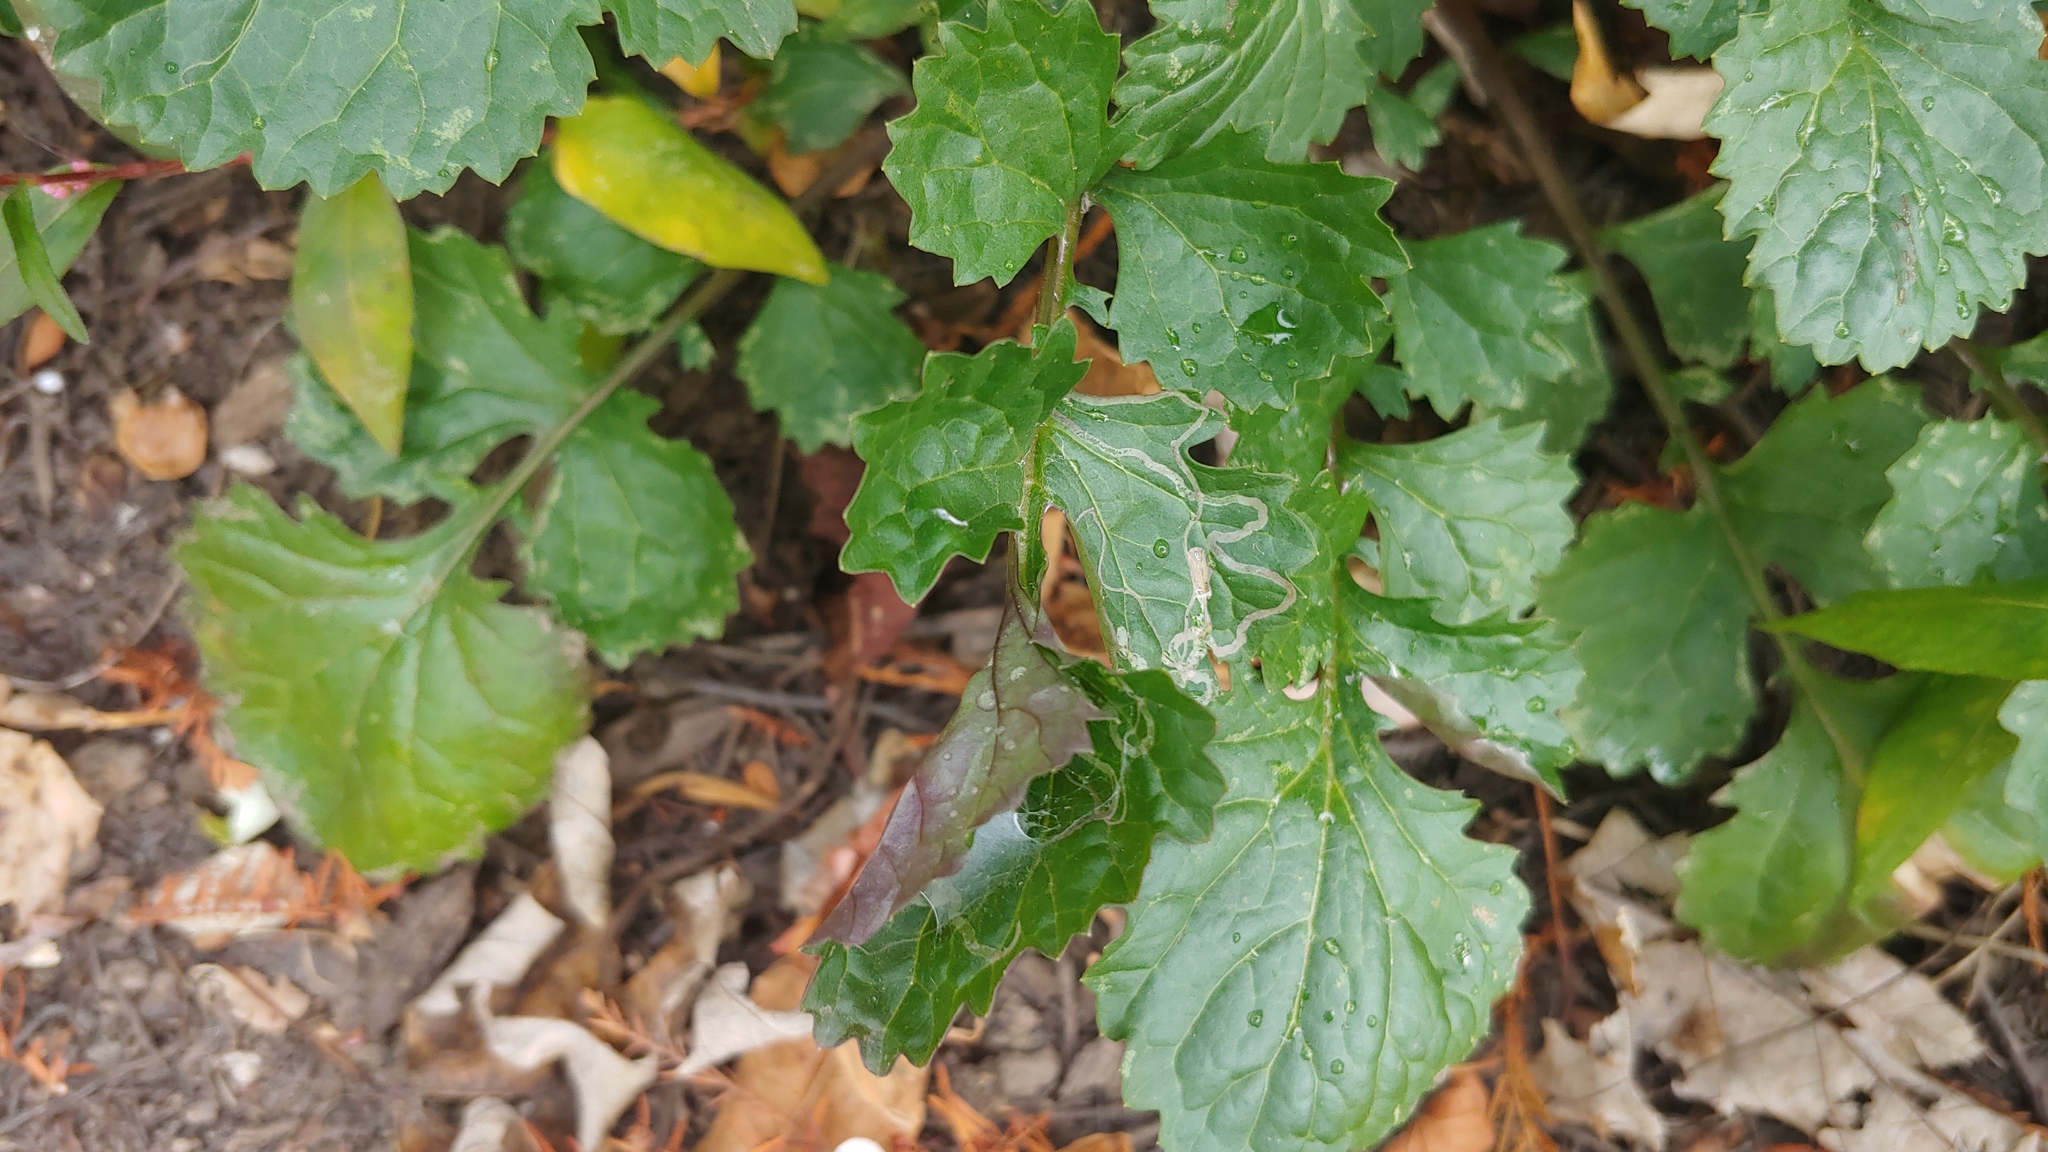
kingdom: Plantae
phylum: Tracheophyta
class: Magnoliopsida
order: Asterales
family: Asteraceae
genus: Packera
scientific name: Packera glabella
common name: Butterweed
